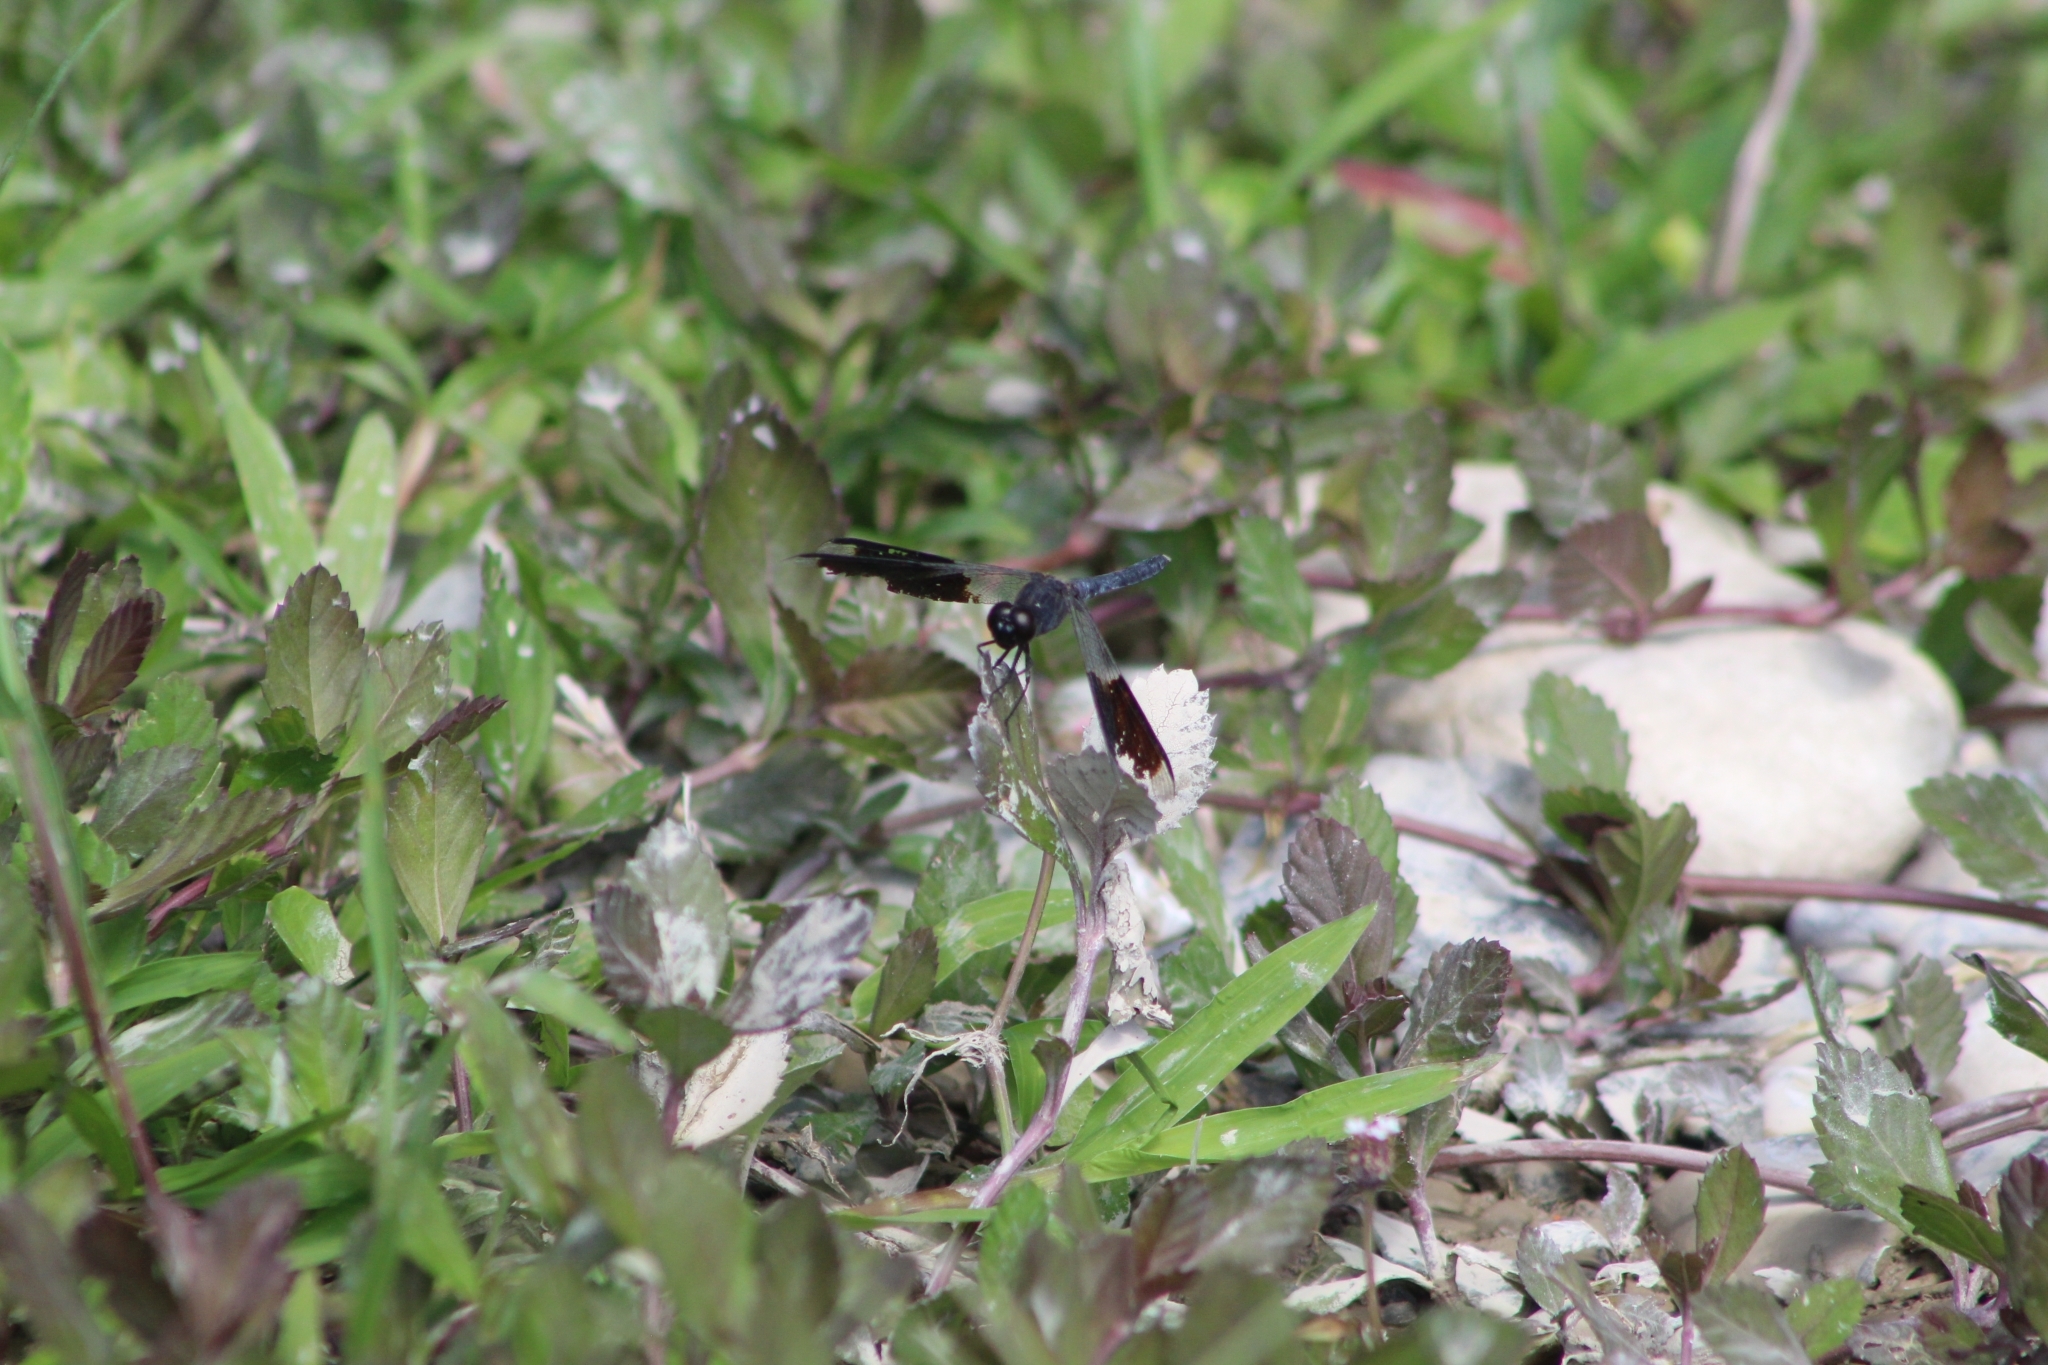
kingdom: Animalia
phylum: Arthropoda
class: Insecta
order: Odonata
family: Libellulidae
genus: Erythrodiplax
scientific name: Erythrodiplax umbrata
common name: Band-winged dragonlet
